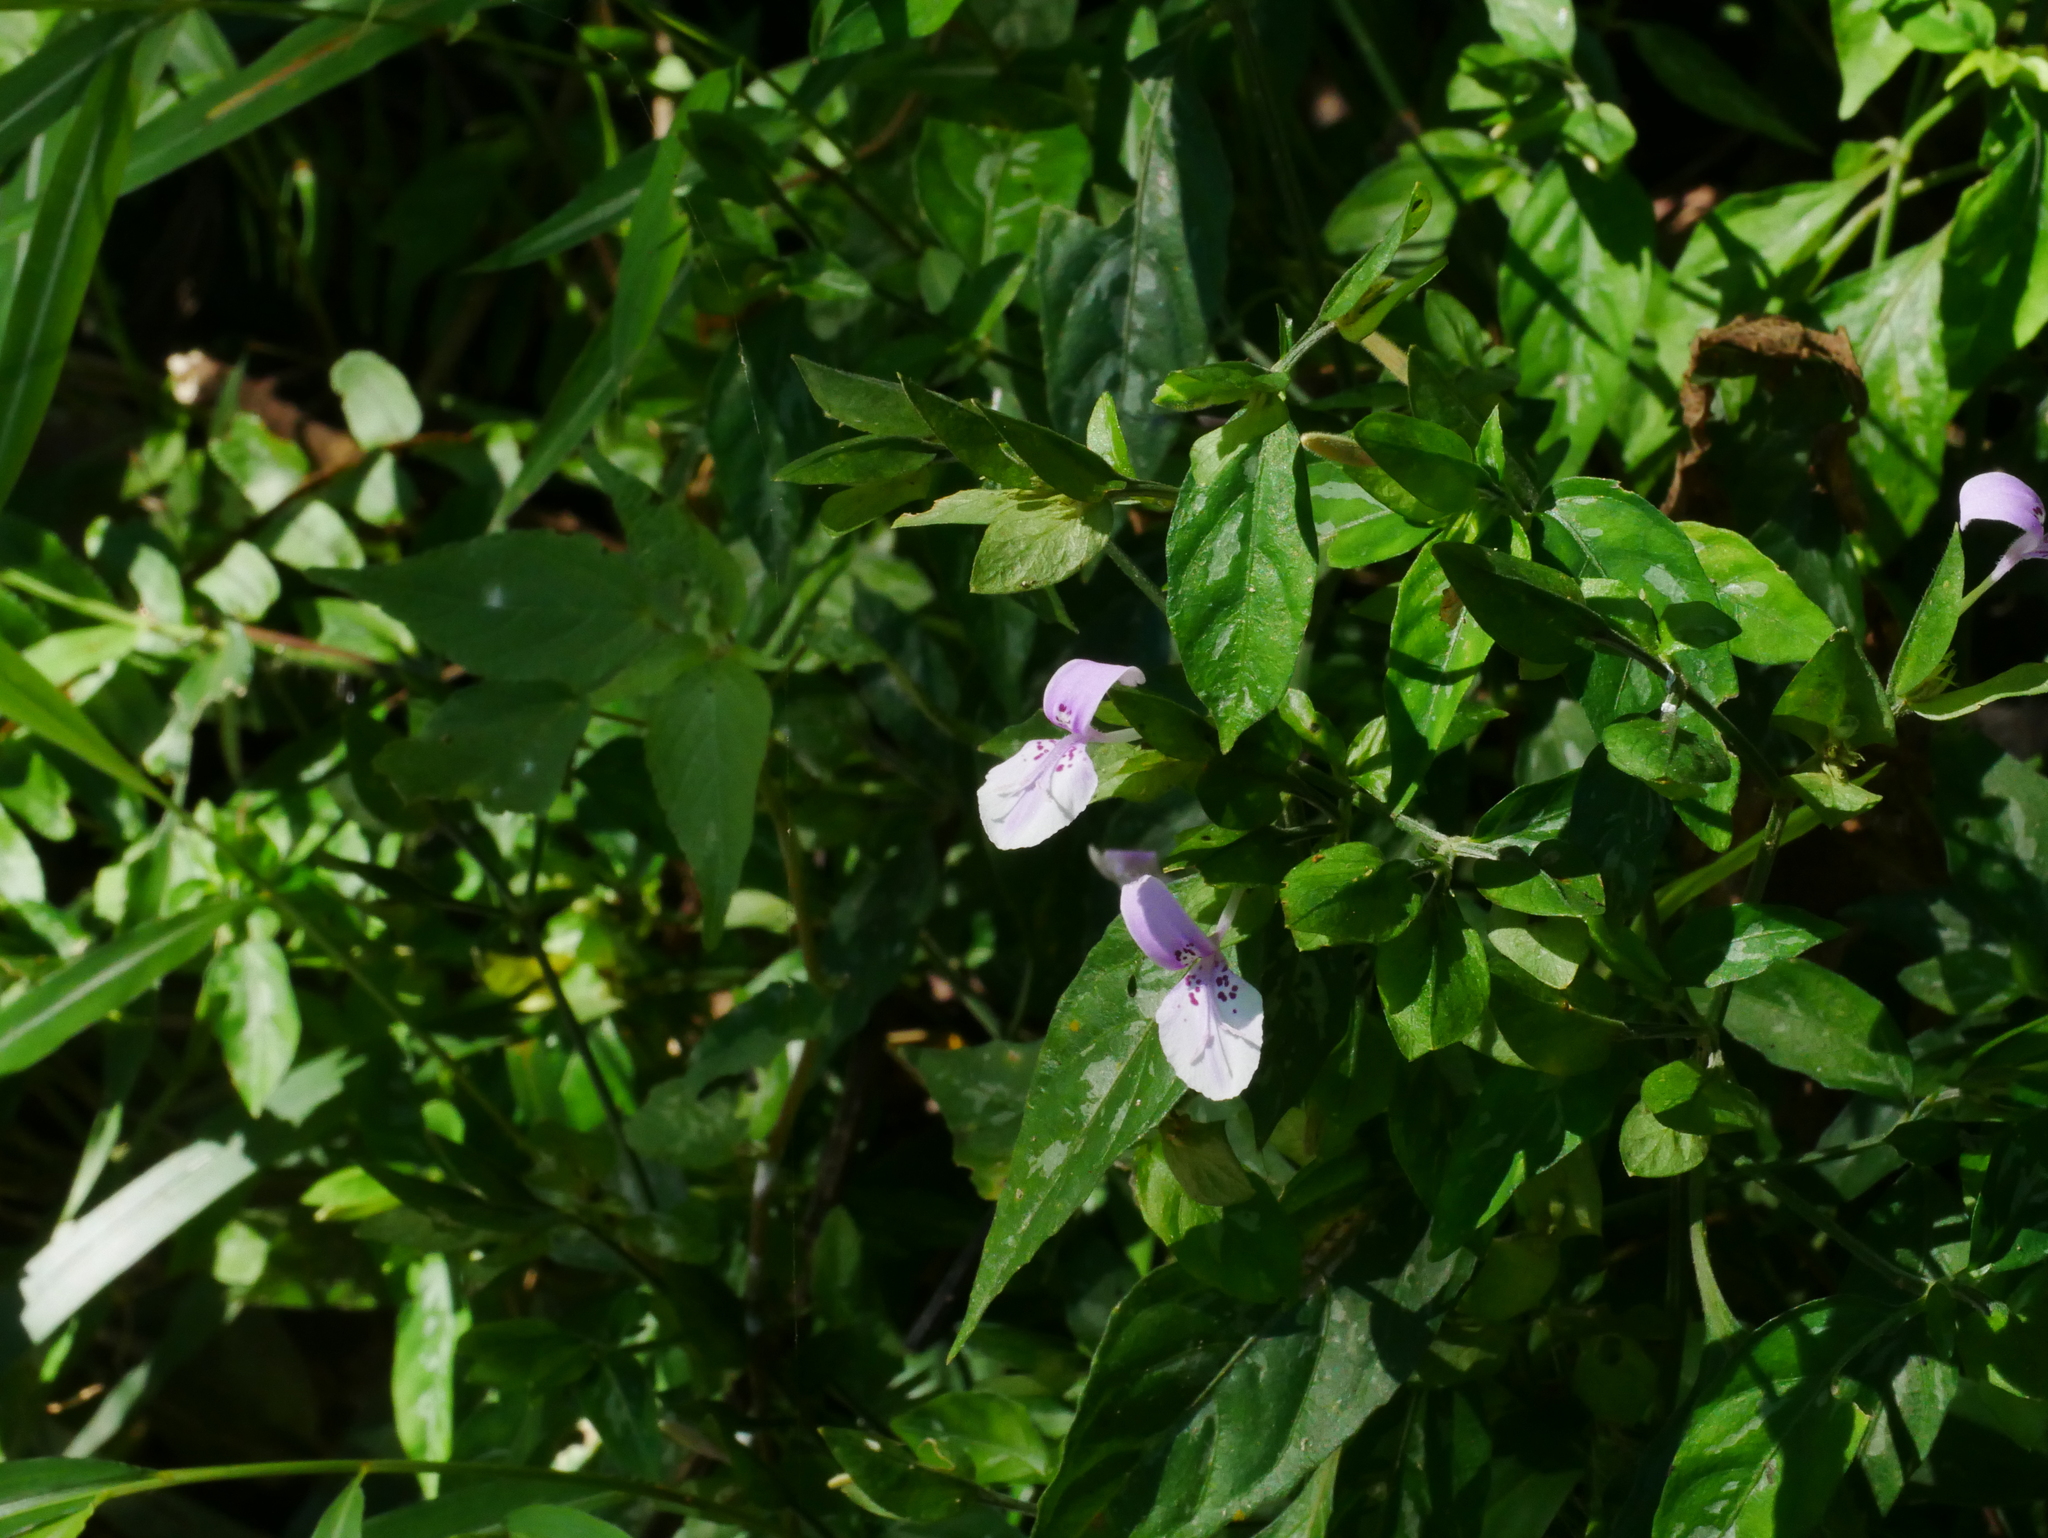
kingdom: Plantae
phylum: Tracheophyta
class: Magnoliopsida
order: Lamiales
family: Acanthaceae
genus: Dicliptera
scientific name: Dicliptera japonica
